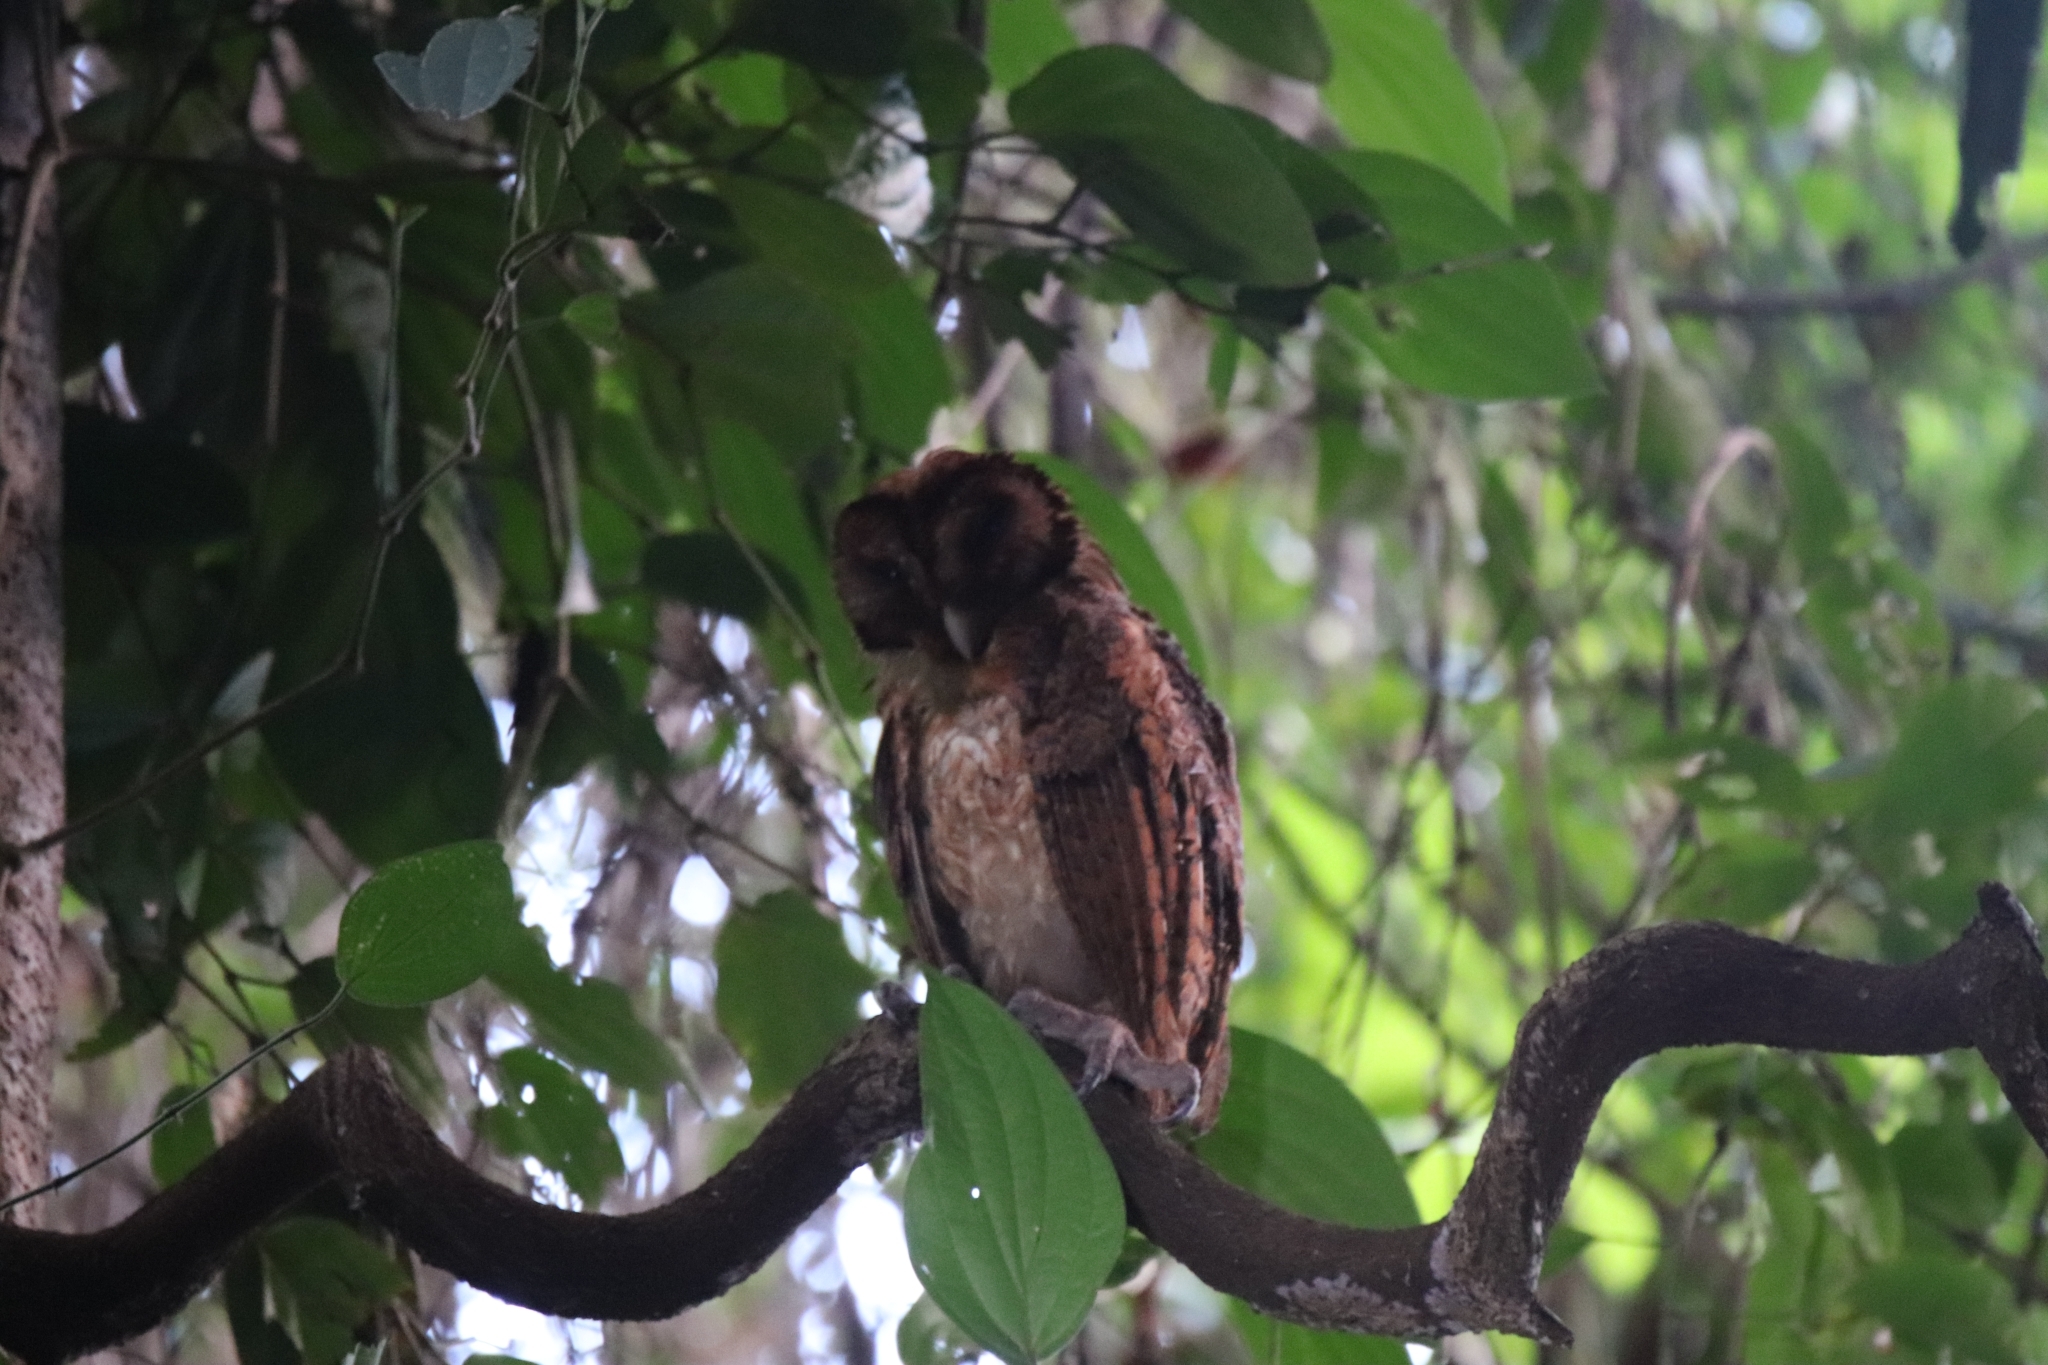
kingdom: Animalia
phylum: Chordata
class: Aves
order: Strigiformes
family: Tytonidae
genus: Tyto
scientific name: Tyto inexspectata
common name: Minahassa masked-owl
